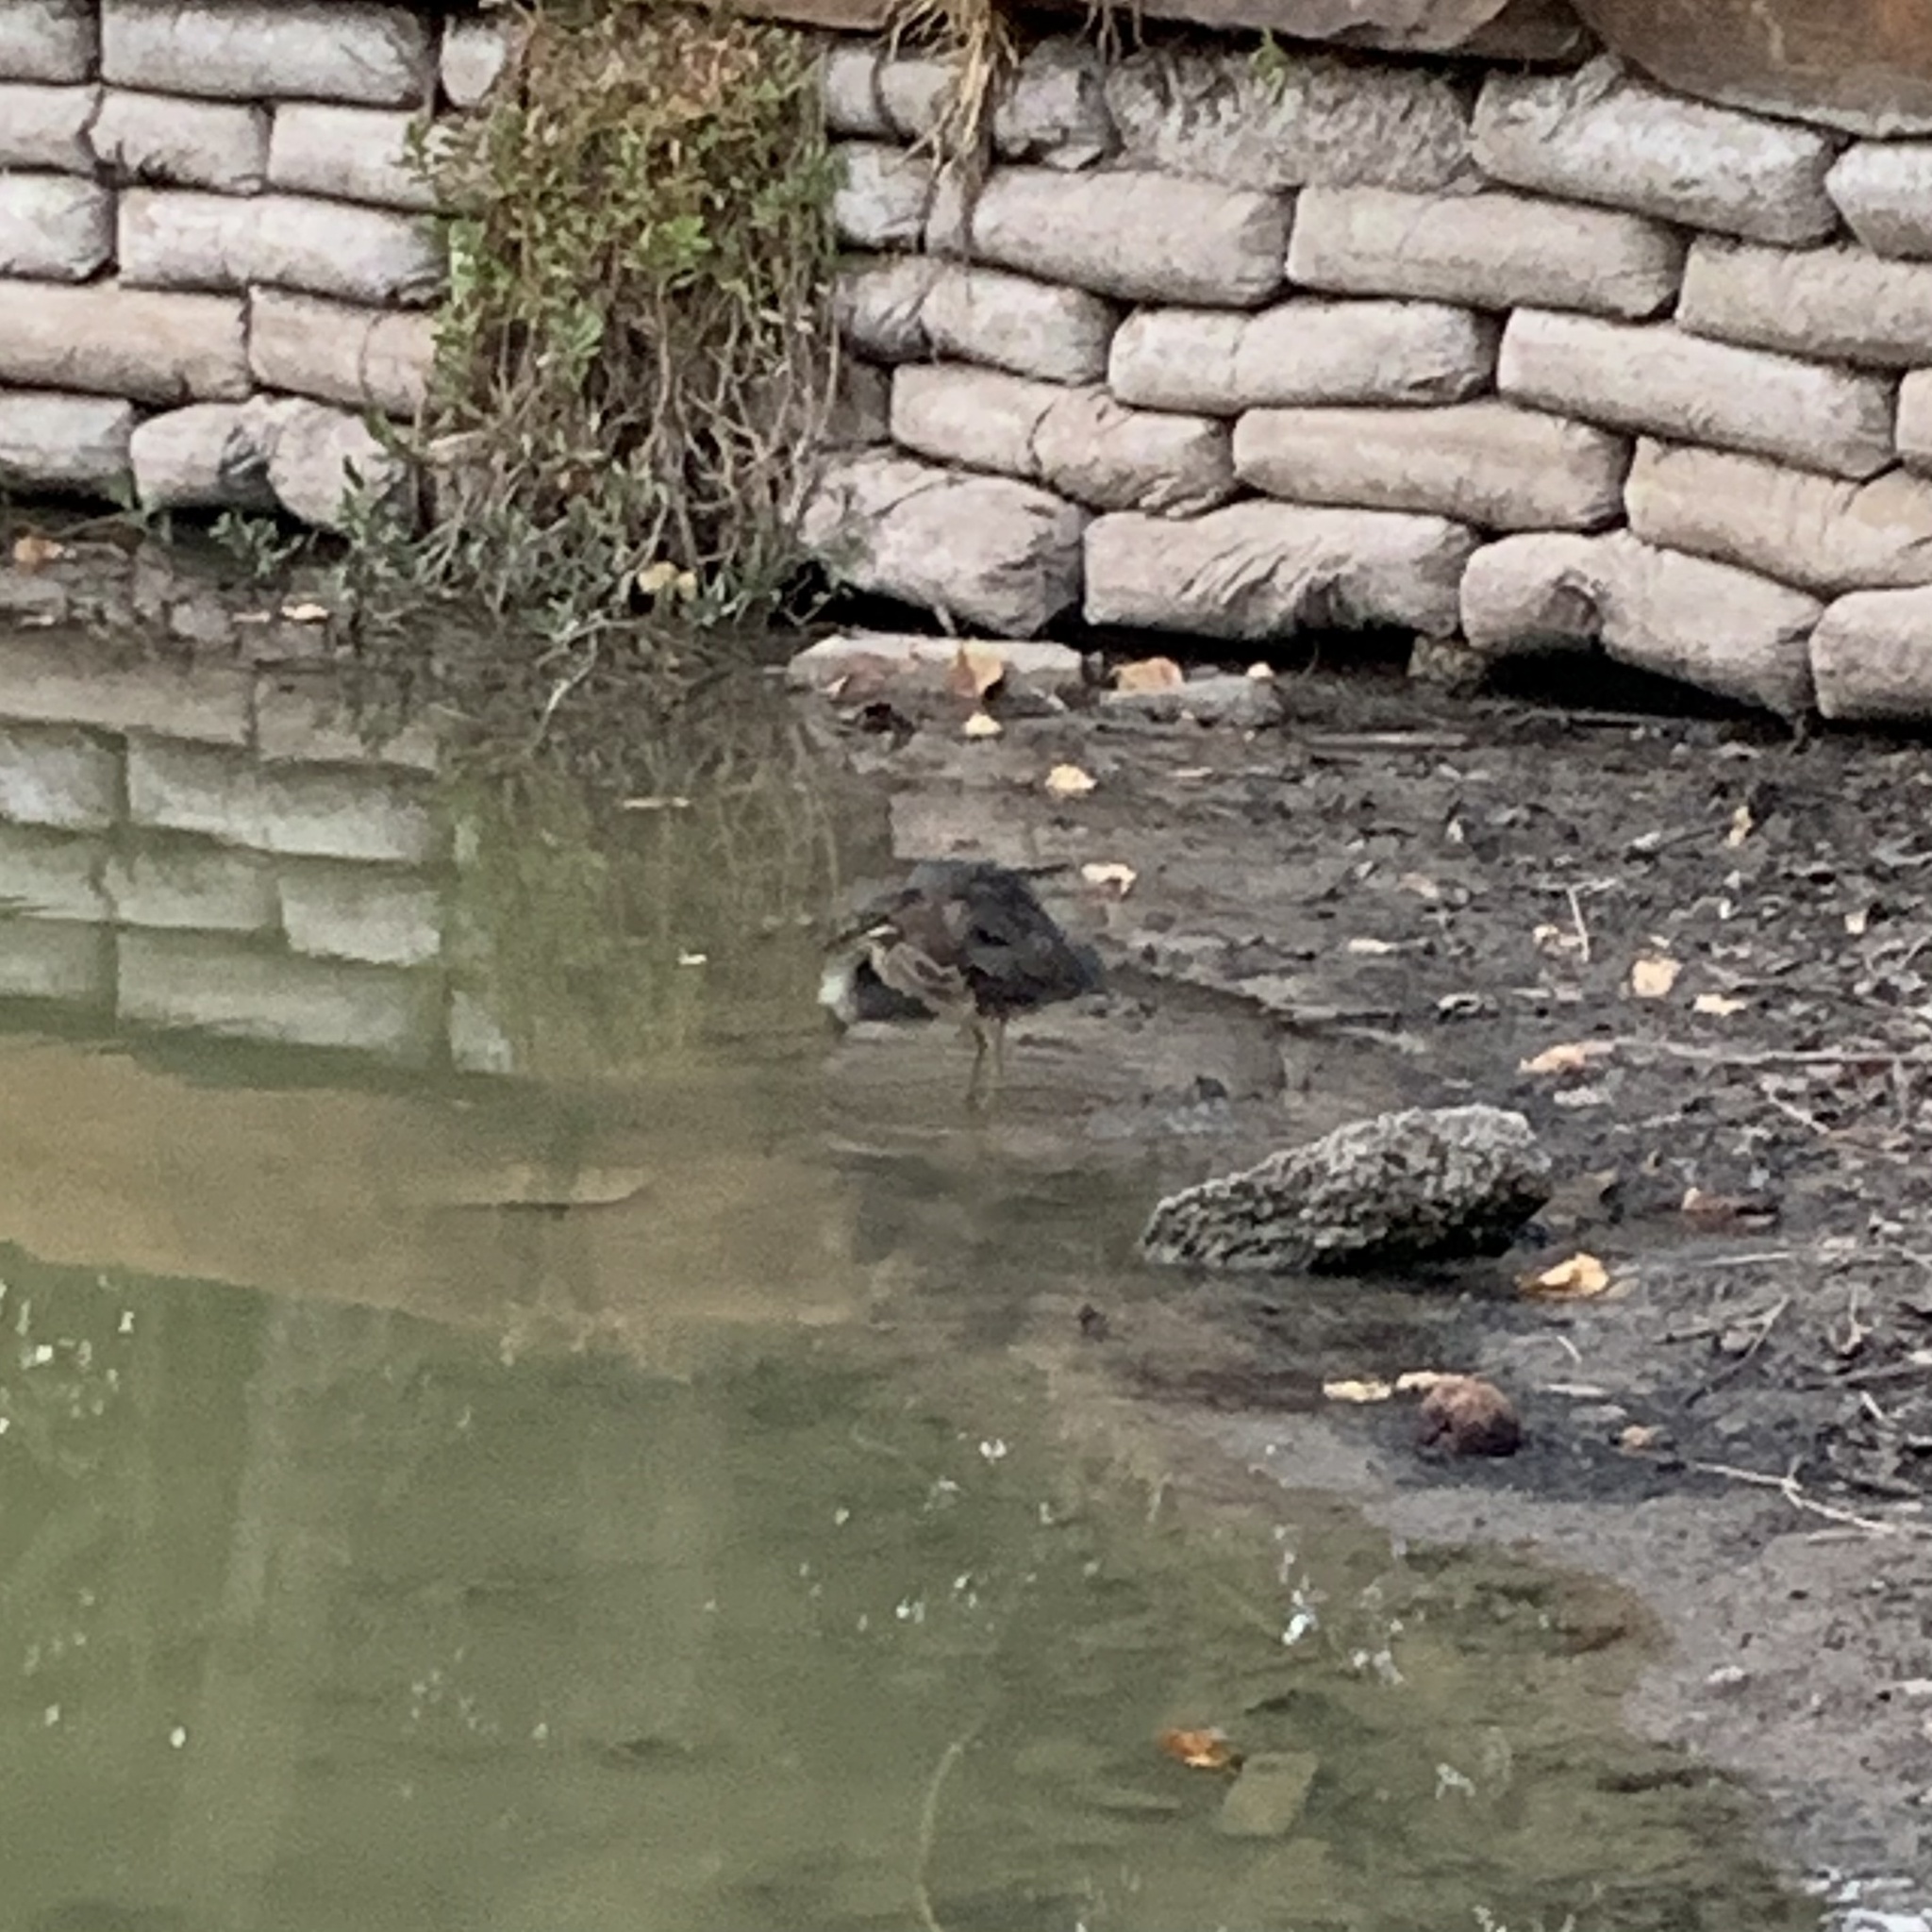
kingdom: Animalia
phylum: Chordata
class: Aves
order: Pelecaniformes
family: Ardeidae
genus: Butorides
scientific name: Butorides virescens
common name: Green heron
